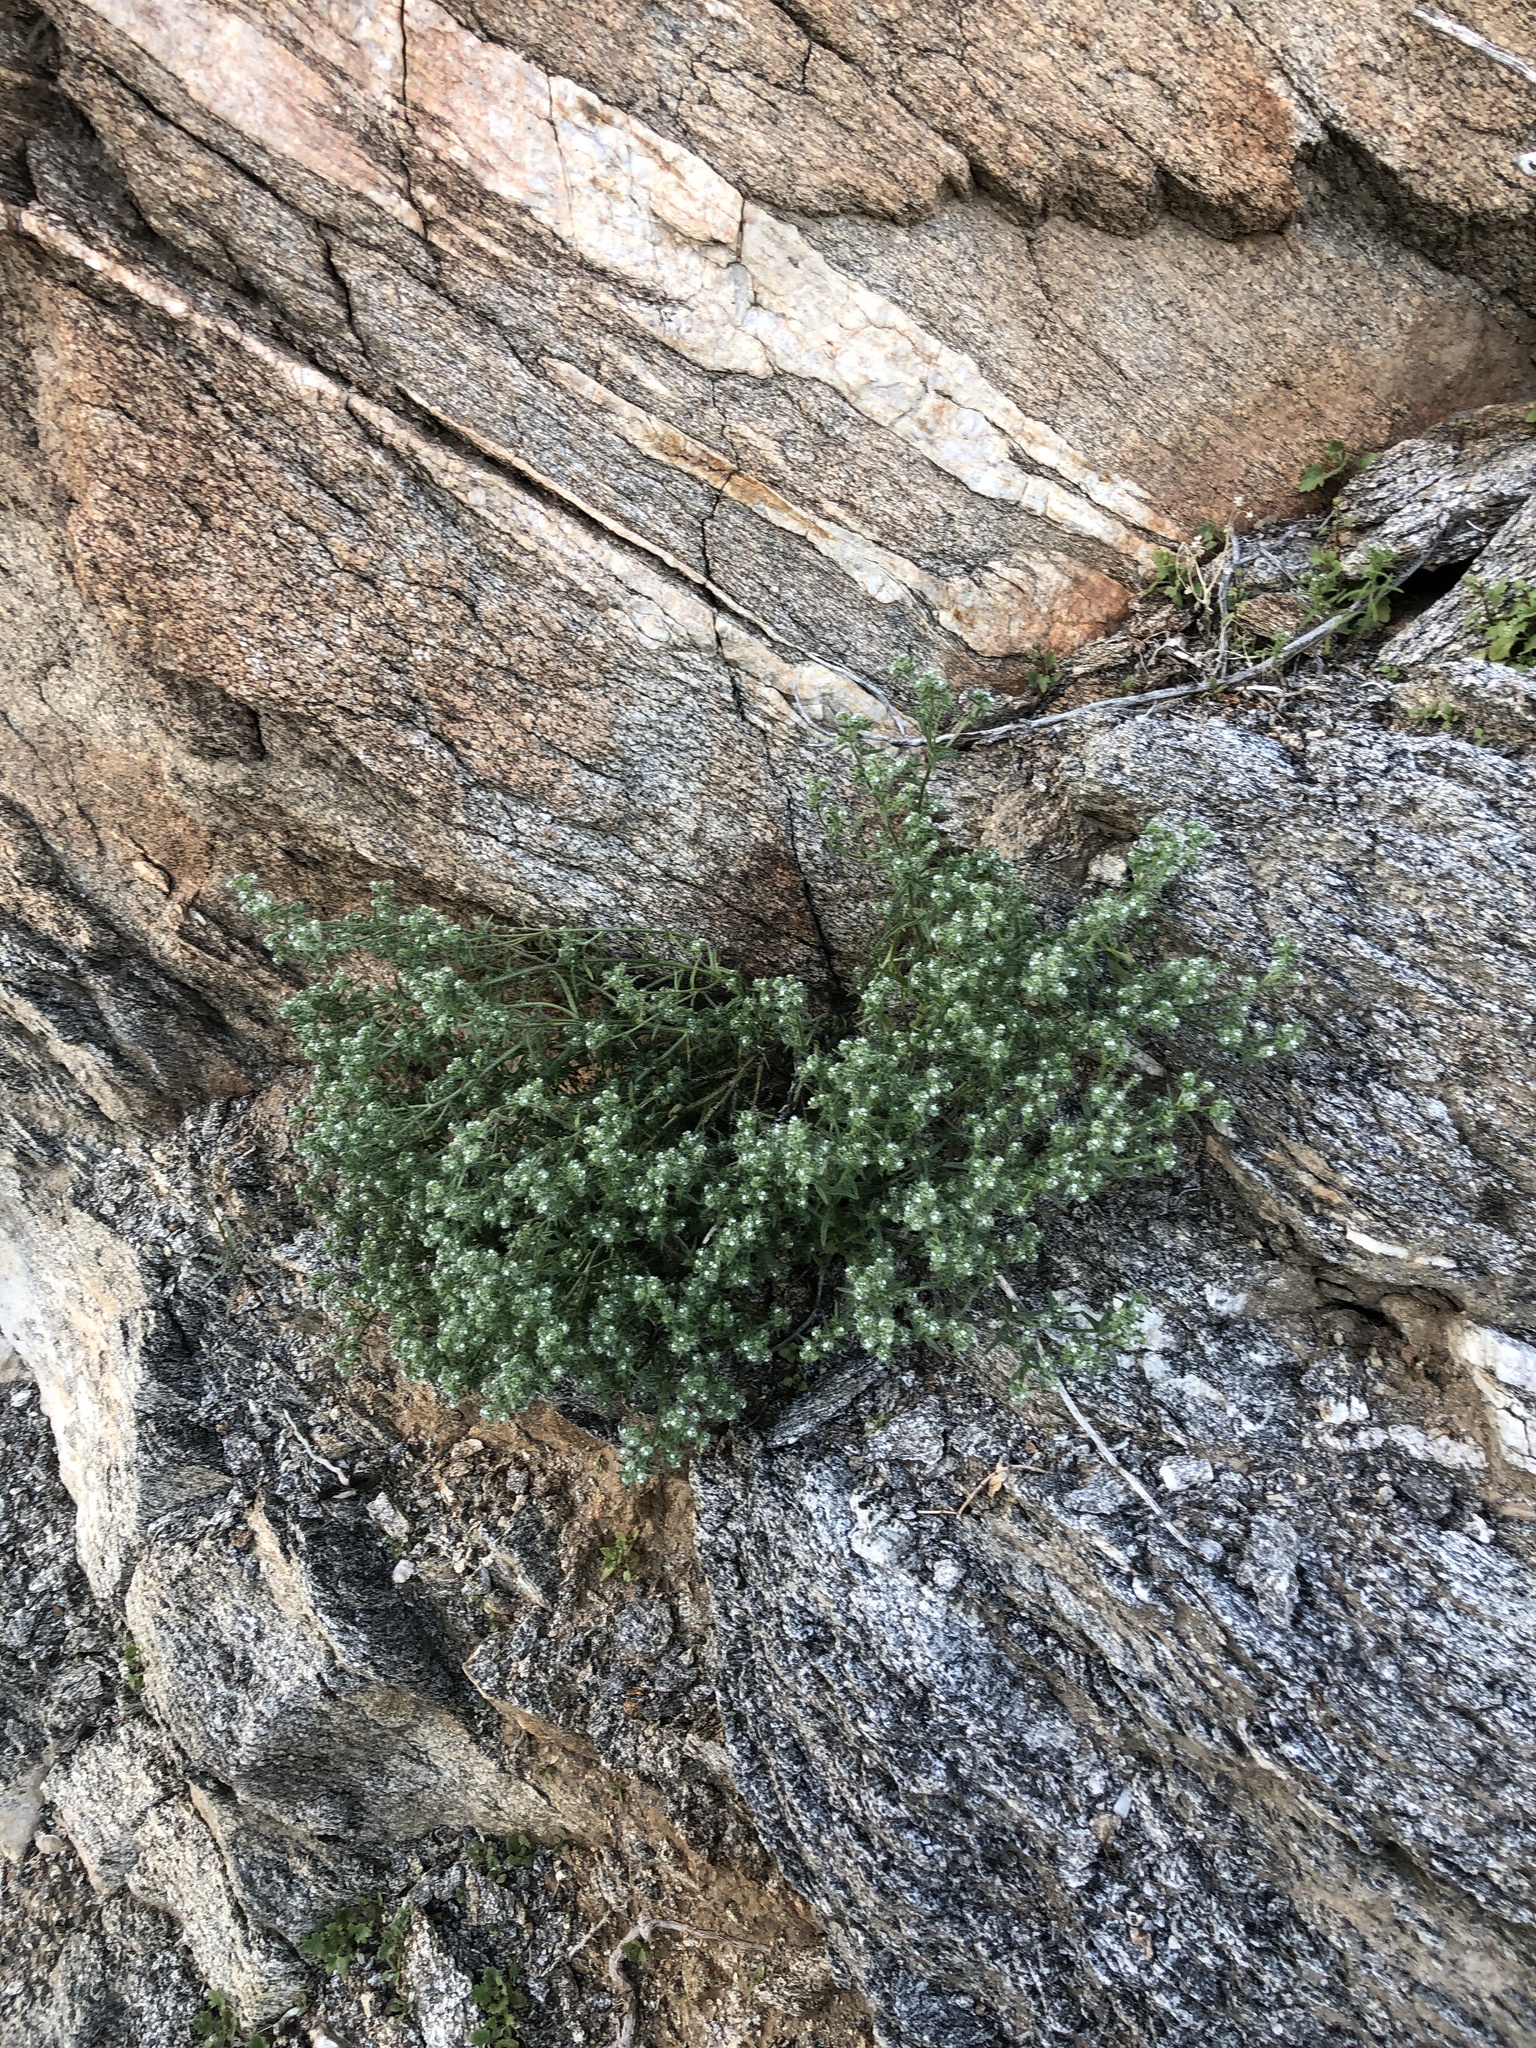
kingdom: Plantae
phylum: Tracheophyta
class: Magnoliopsida
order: Boraginales
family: Boraginaceae
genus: Cryptantha
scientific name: Cryptantha maritima
